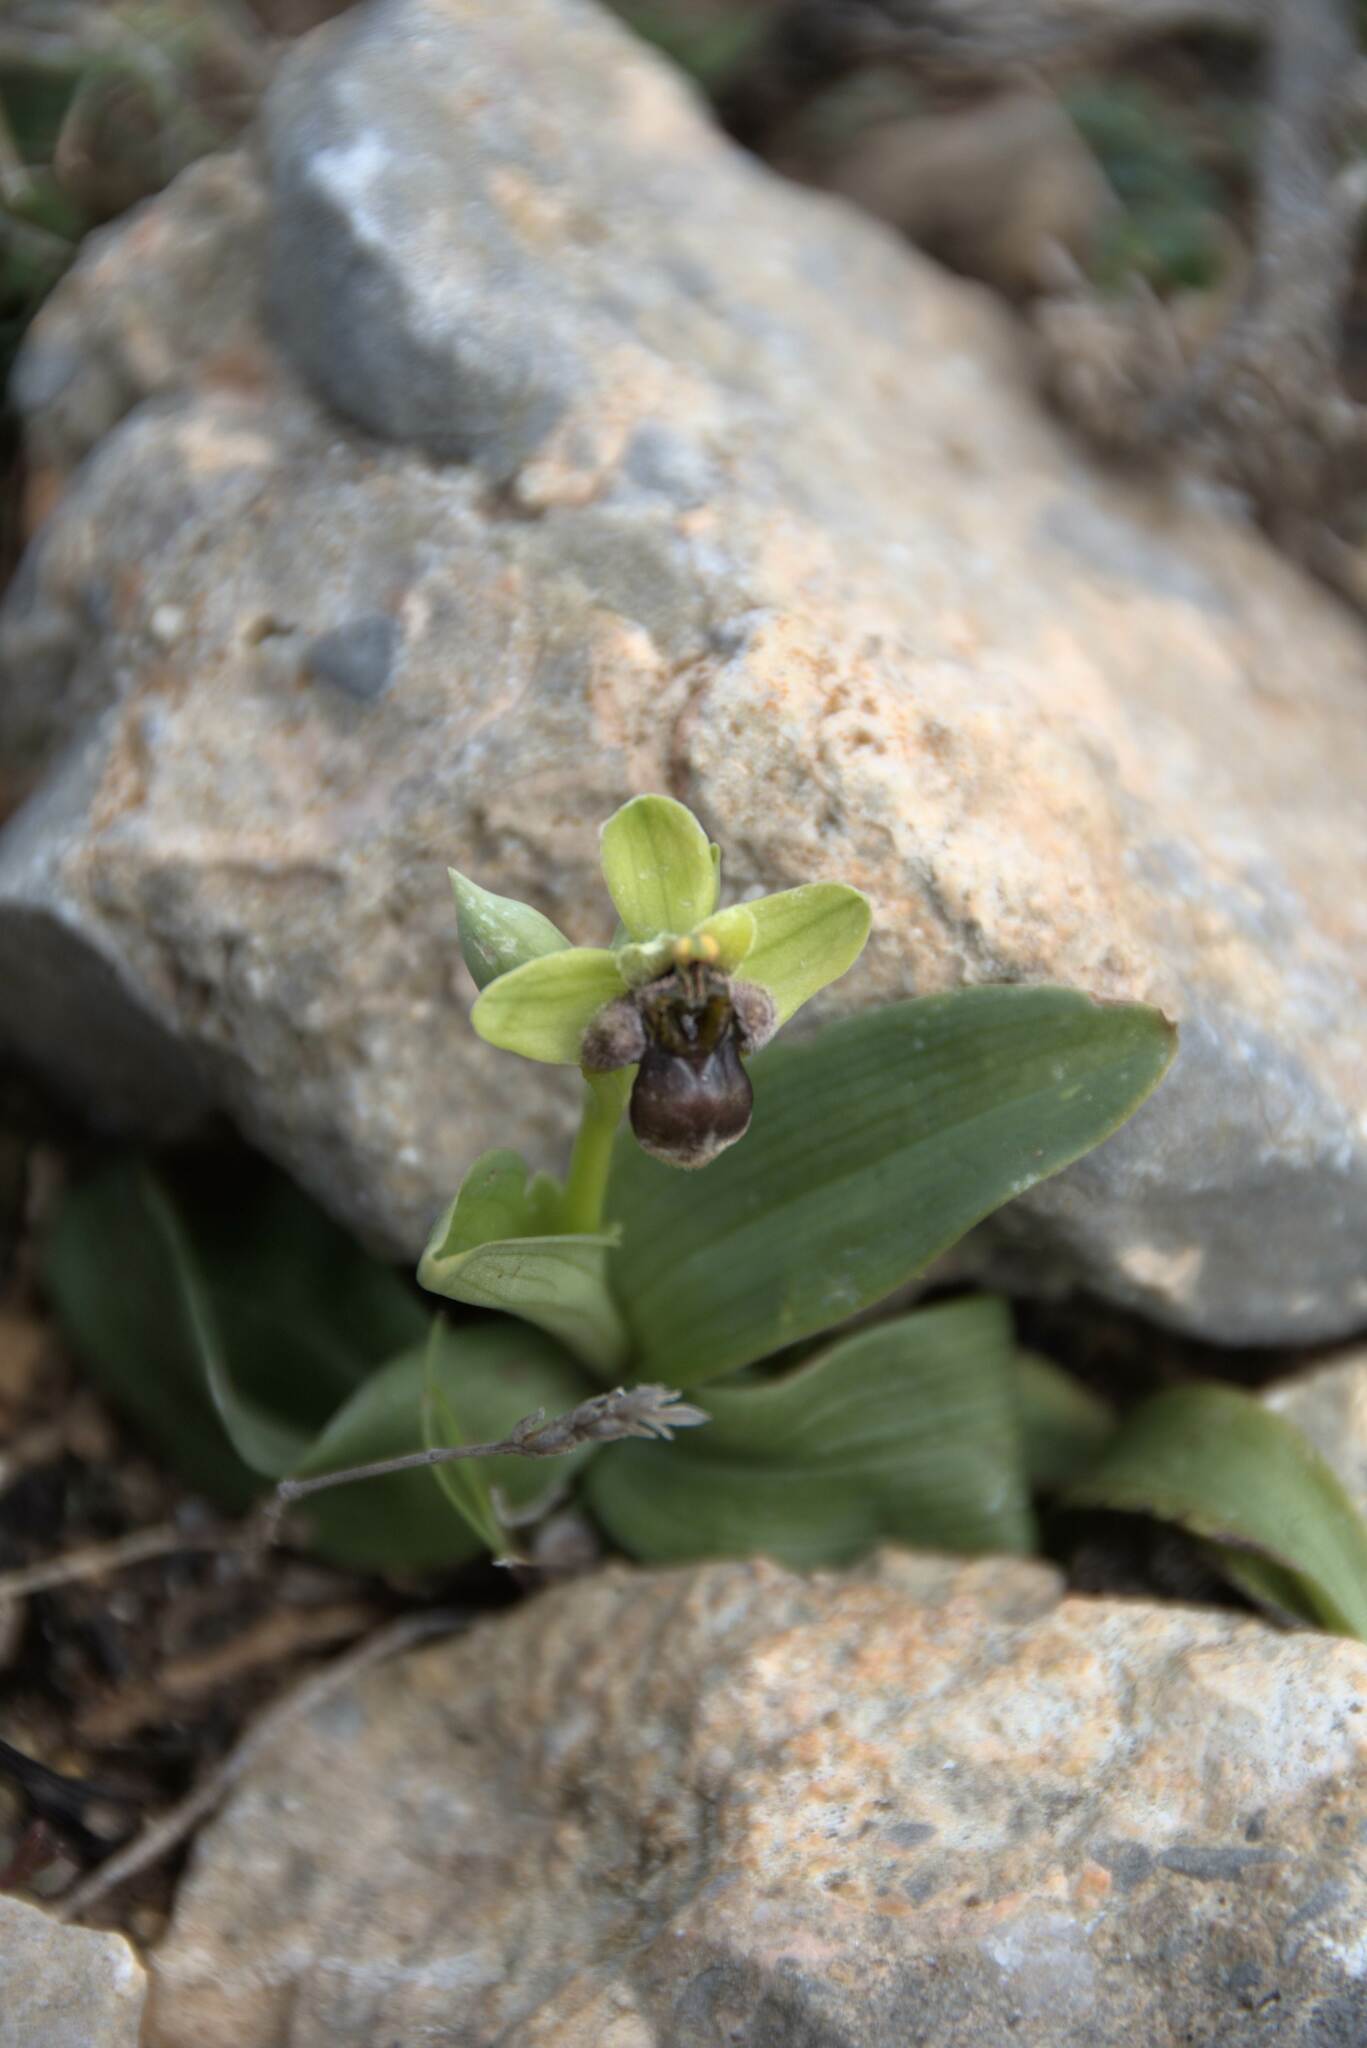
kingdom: Plantae
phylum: Tracheophyta
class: Liliopsida
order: Asparagales
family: Orchidaceae
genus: Ophrys
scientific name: Ophrys bombyliflora
